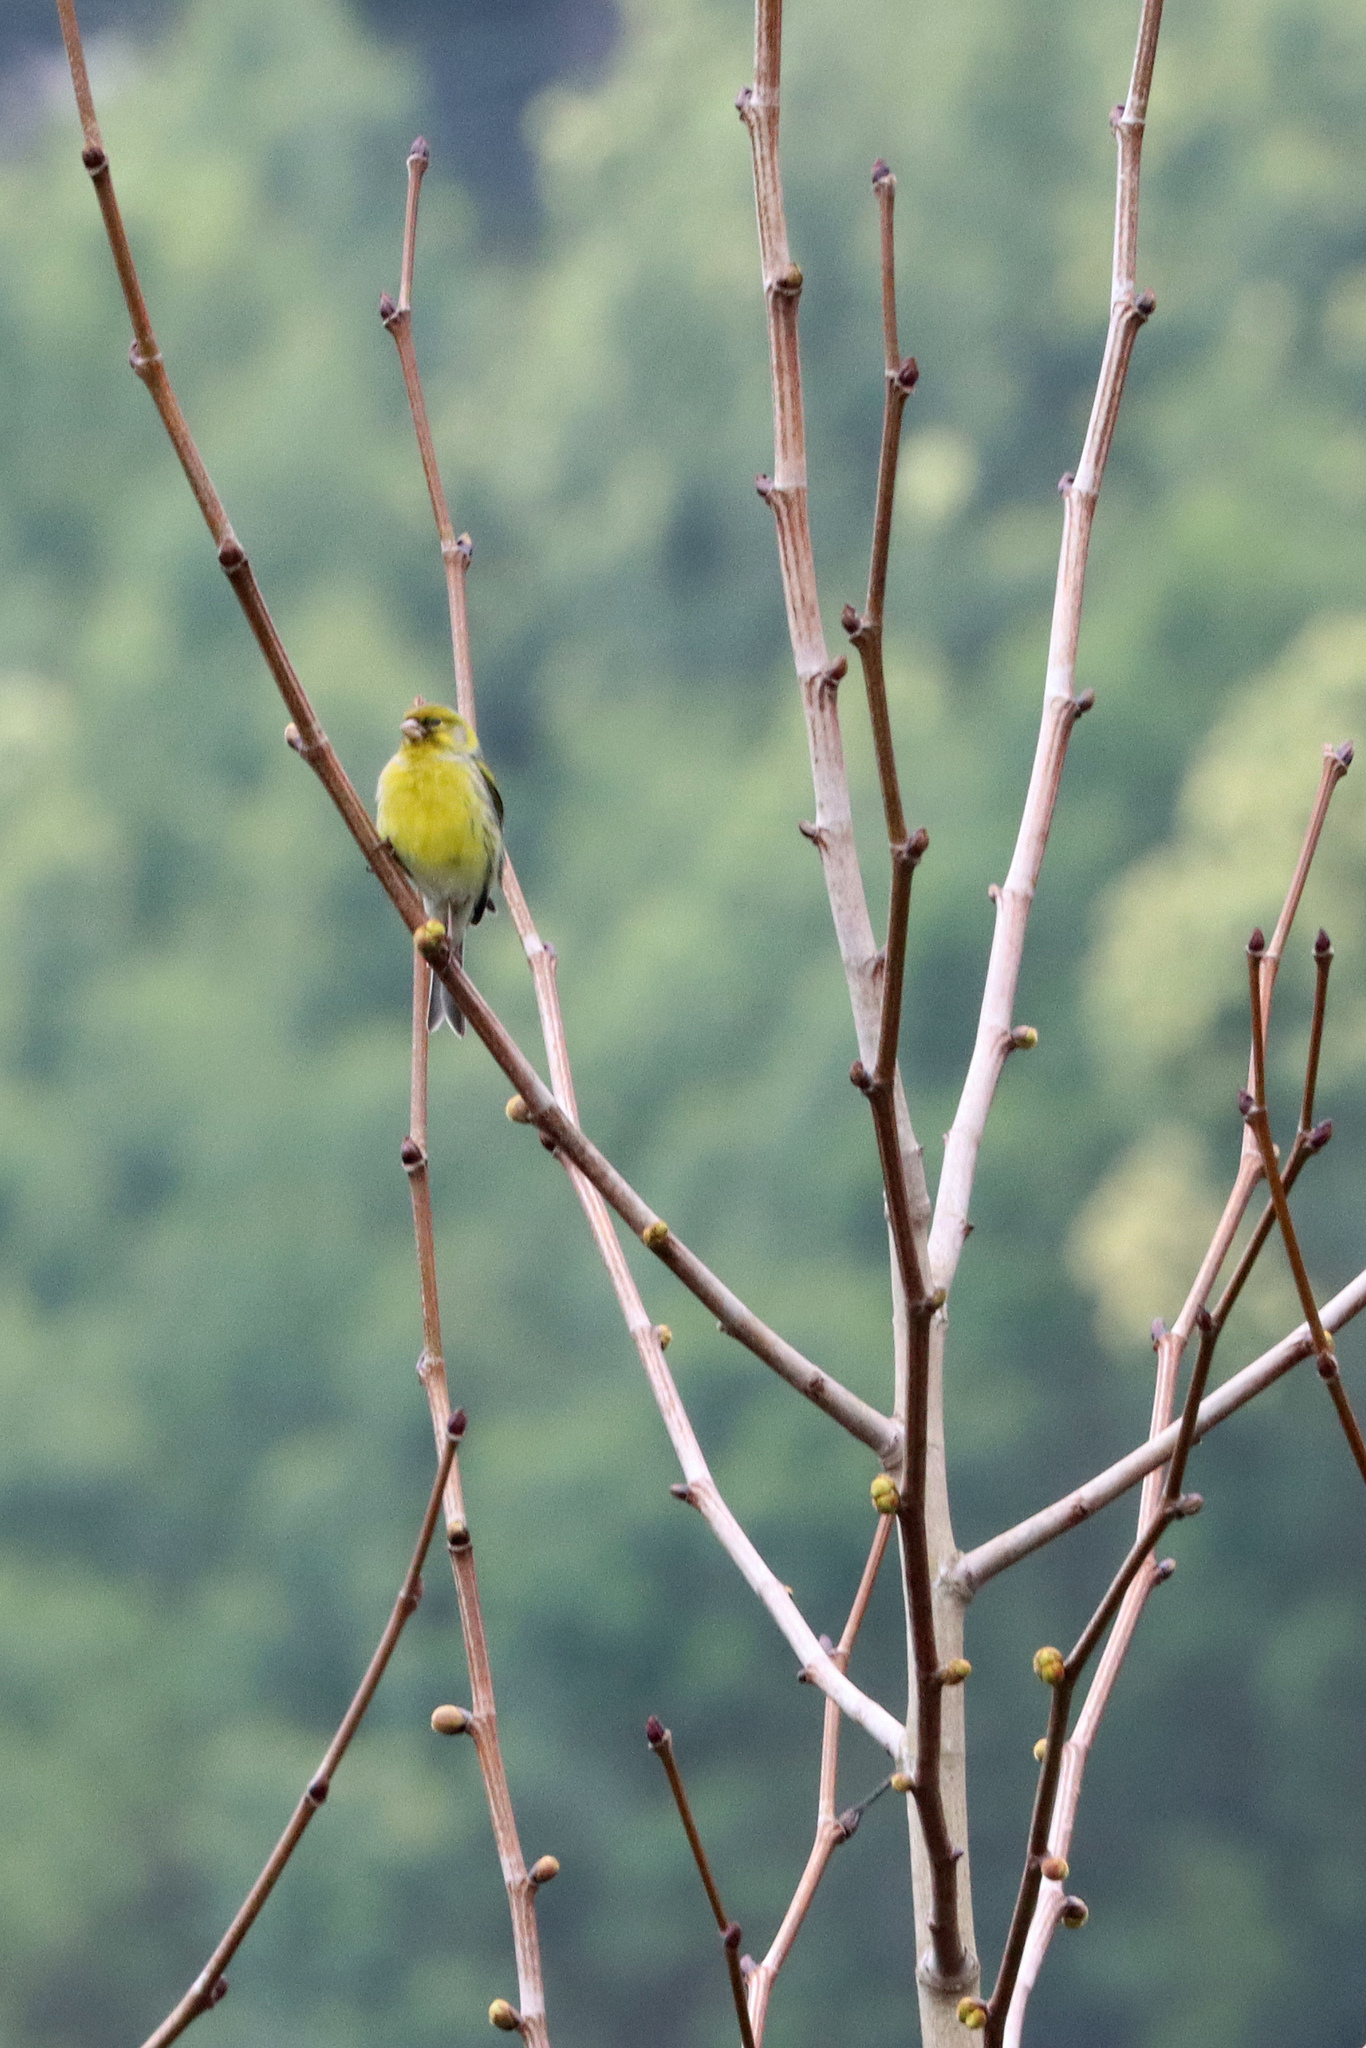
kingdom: Animalia
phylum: Chordata
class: Aves
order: Passeriformes
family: Fringillidae
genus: Serinus
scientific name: Serinus canaria
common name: Atlantic canary
